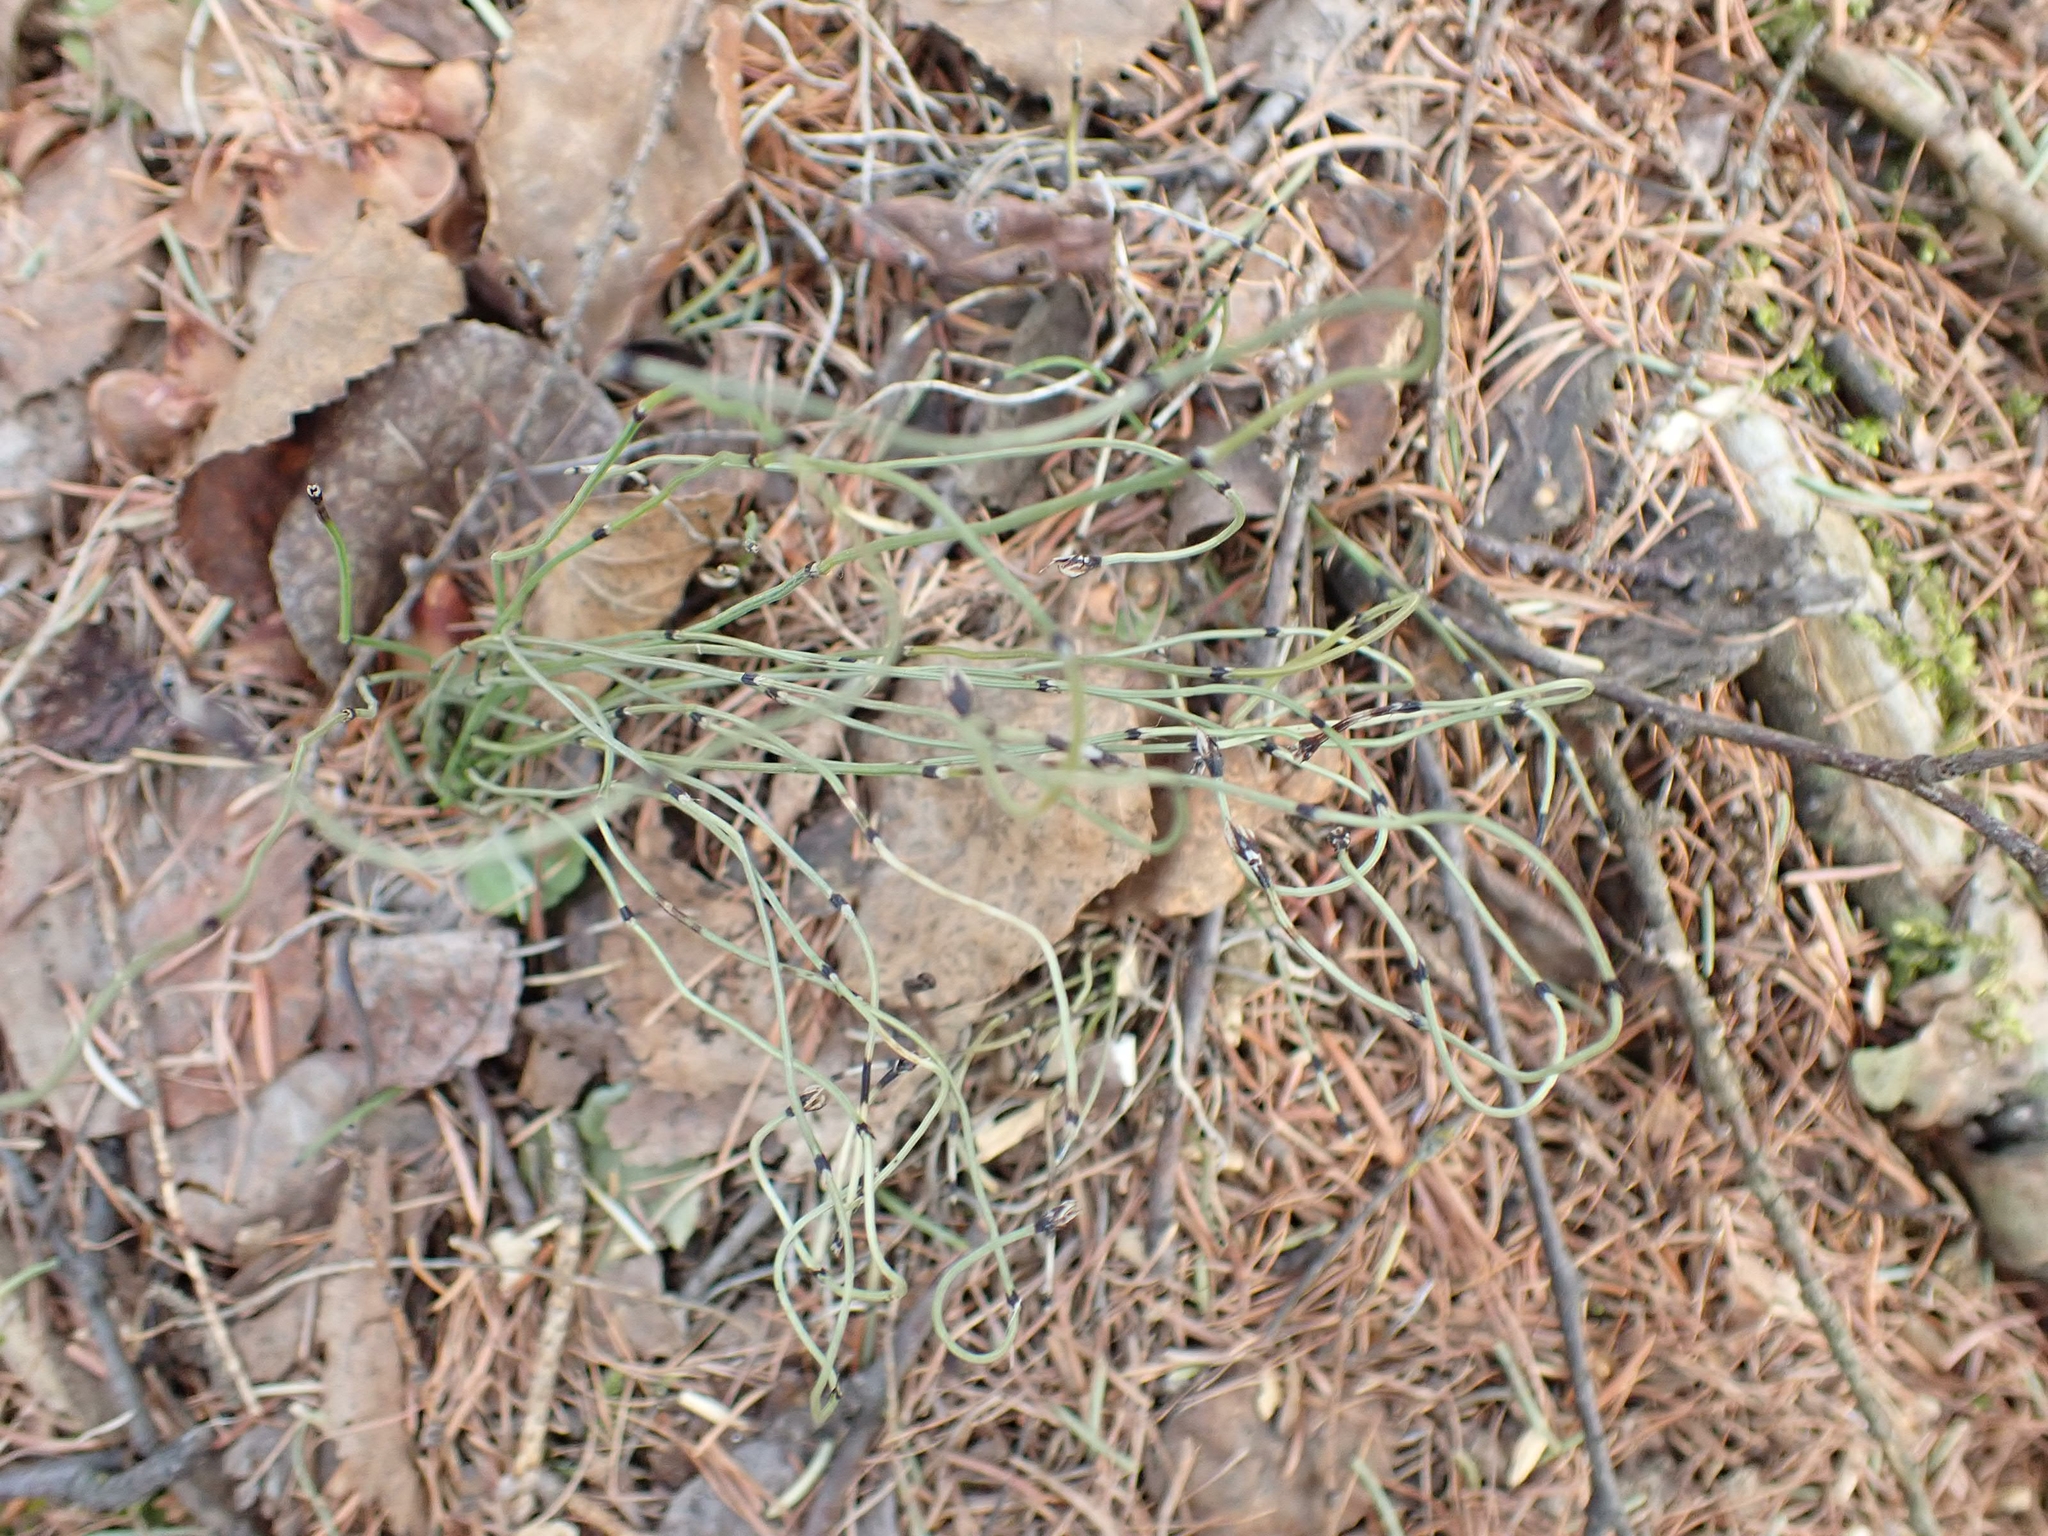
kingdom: Plantae
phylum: Tracheophyta
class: Polypodiopsida
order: Equisetales
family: Equisetaceae
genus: Equisetum
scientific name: Equisetum scirpoides
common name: Delicate horsetail
